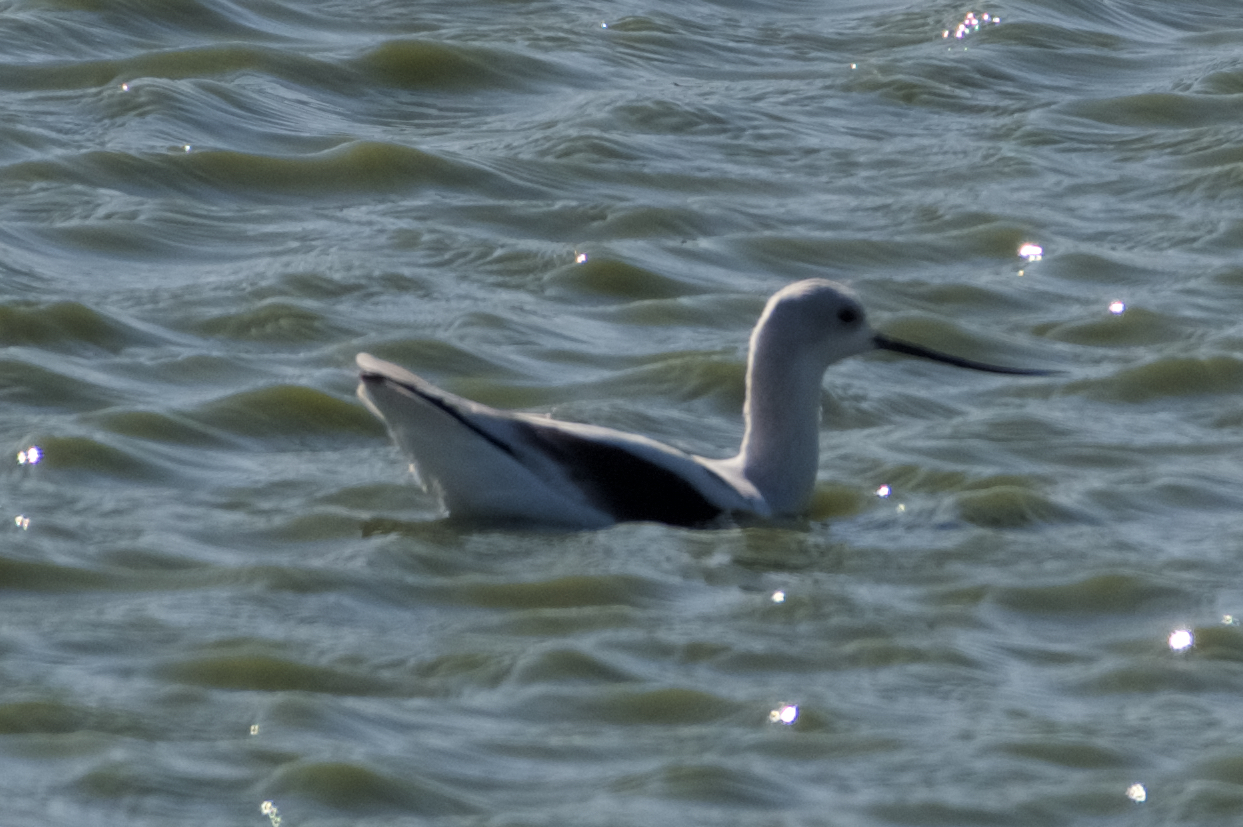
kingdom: Animalia
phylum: Chordata
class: Aves
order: Charadriiformes
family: Recurvirostridae
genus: Recurvirostra
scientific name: Recurvirostra americana
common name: American avocet
